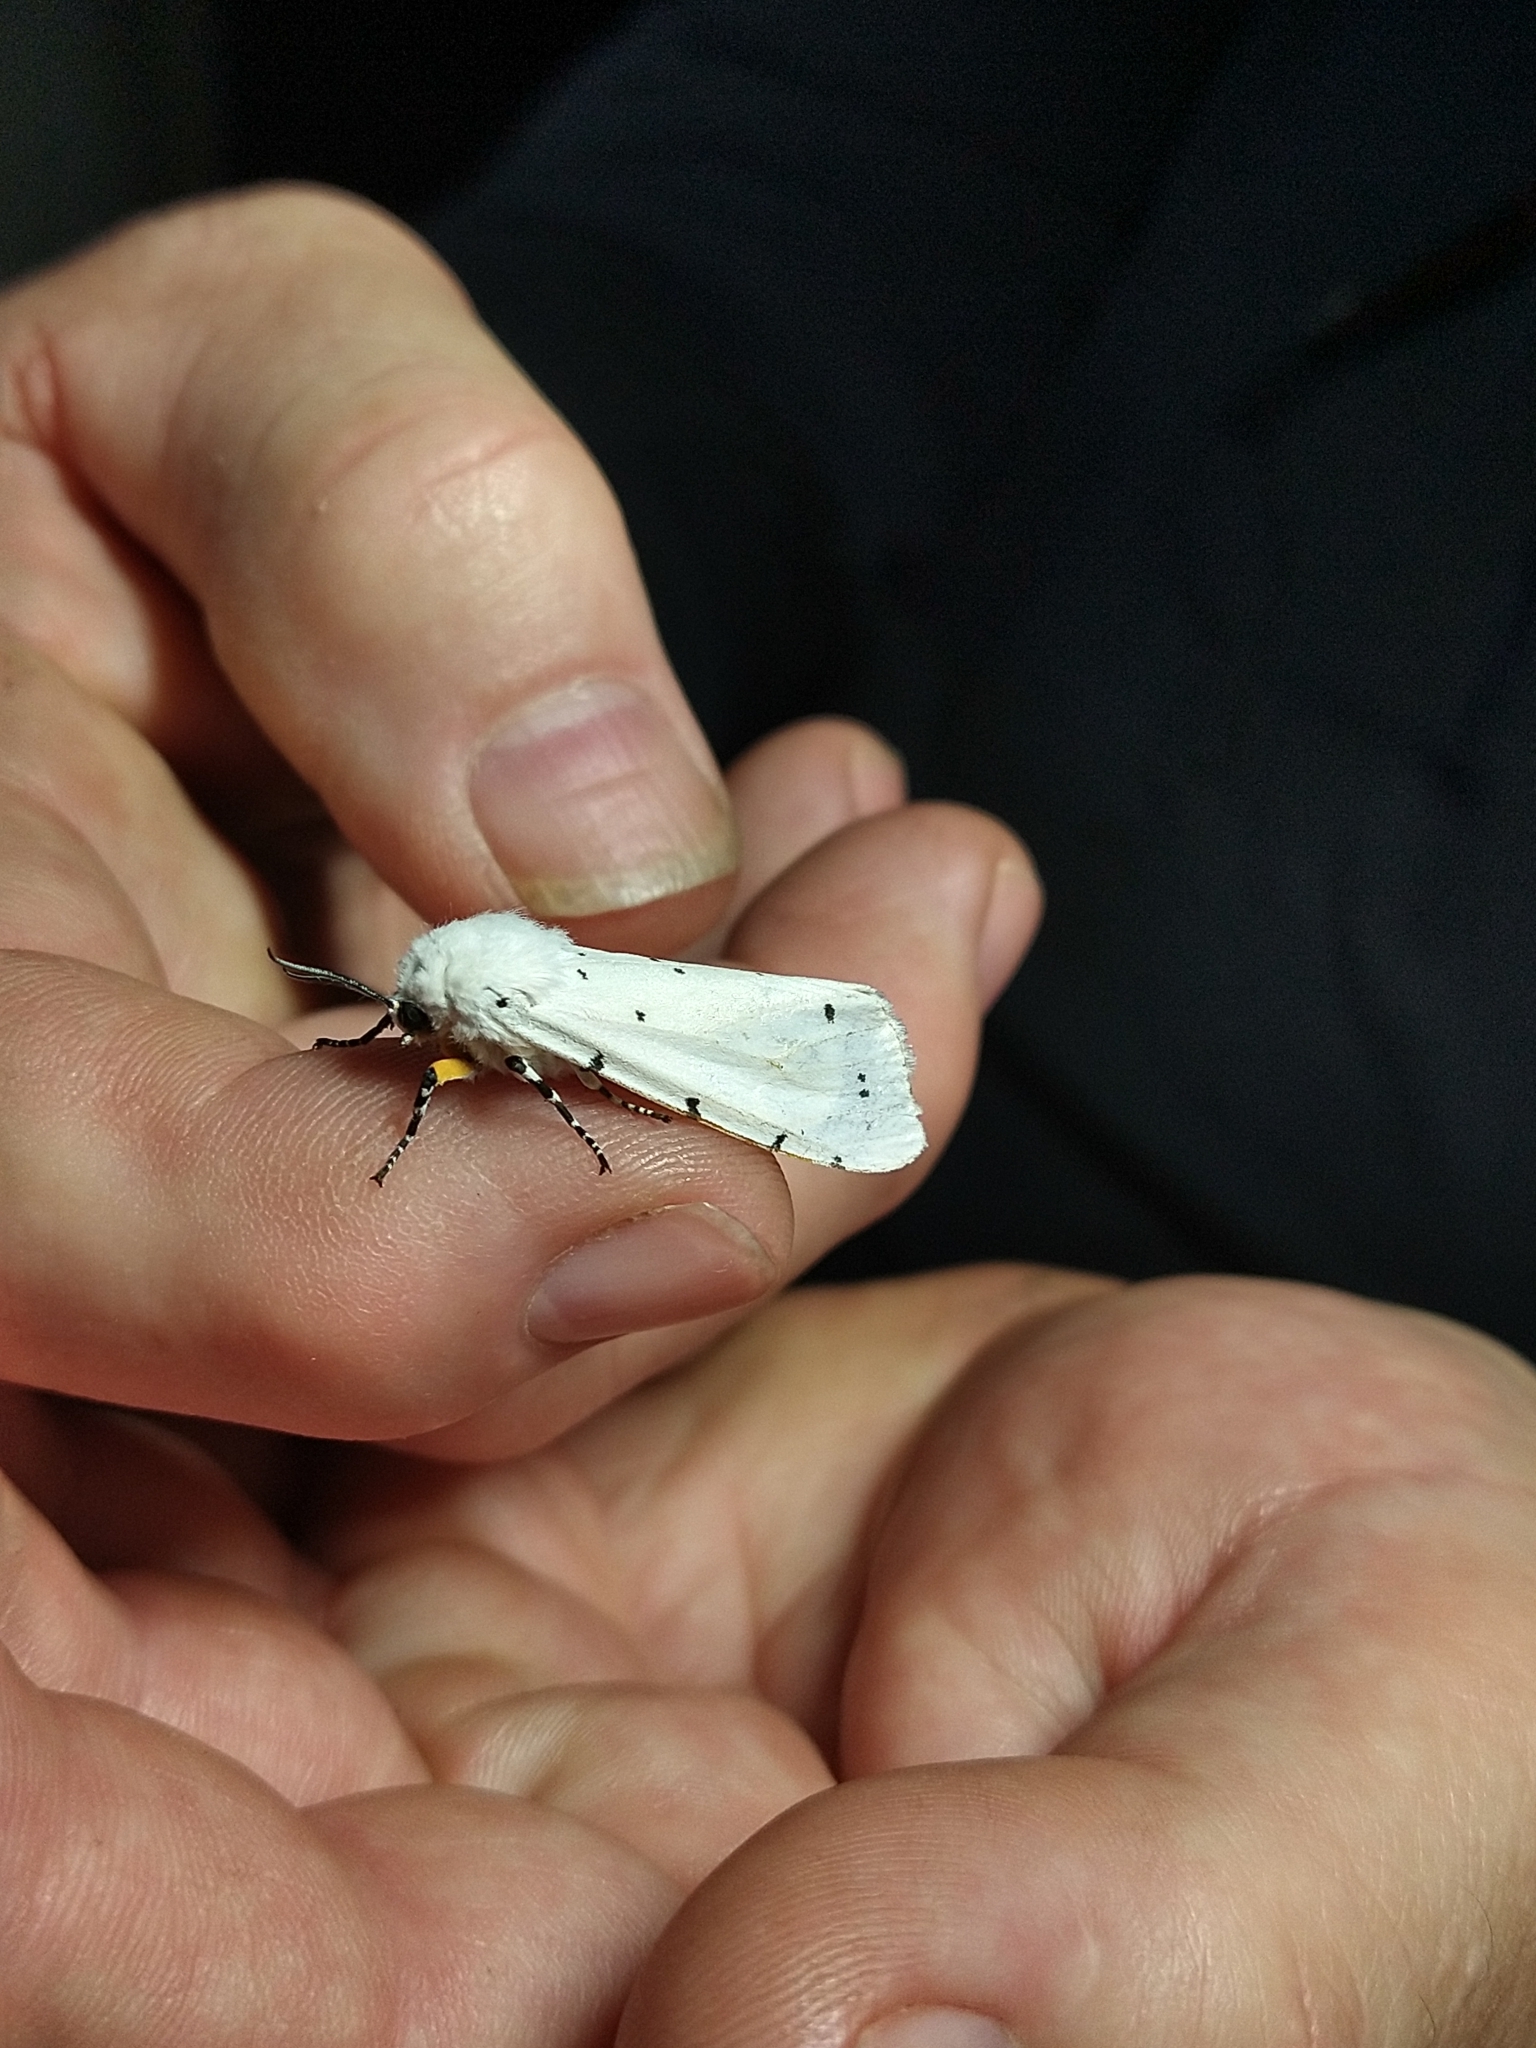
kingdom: Animalia
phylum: Arthropoda
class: Insecta
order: Lepidoptera
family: Erebidae
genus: Estigmene
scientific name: Estigmene acrea
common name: Salt marsh moth
